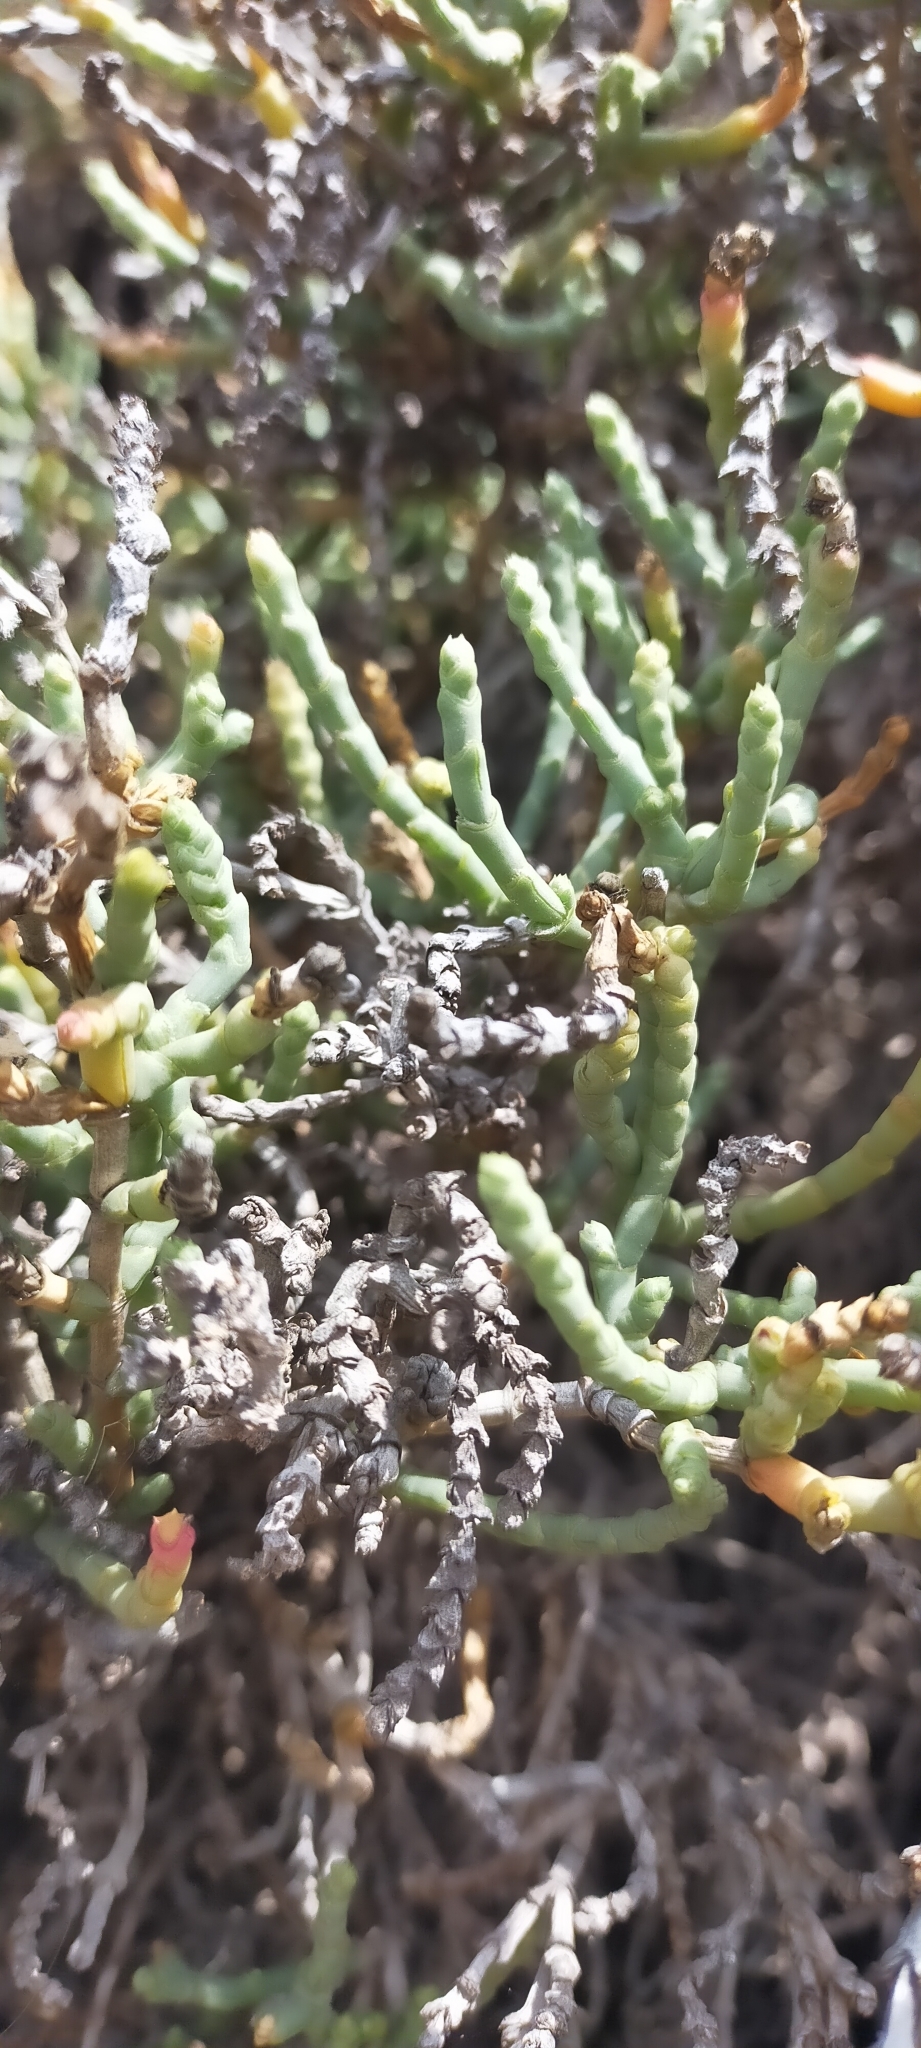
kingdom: Plantae
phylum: Tracheophyta
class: Magnoliopsida
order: Caryophyllales
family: Amaranthaceae
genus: Arthrocaulon
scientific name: Arthrocaulon macrostachyum
